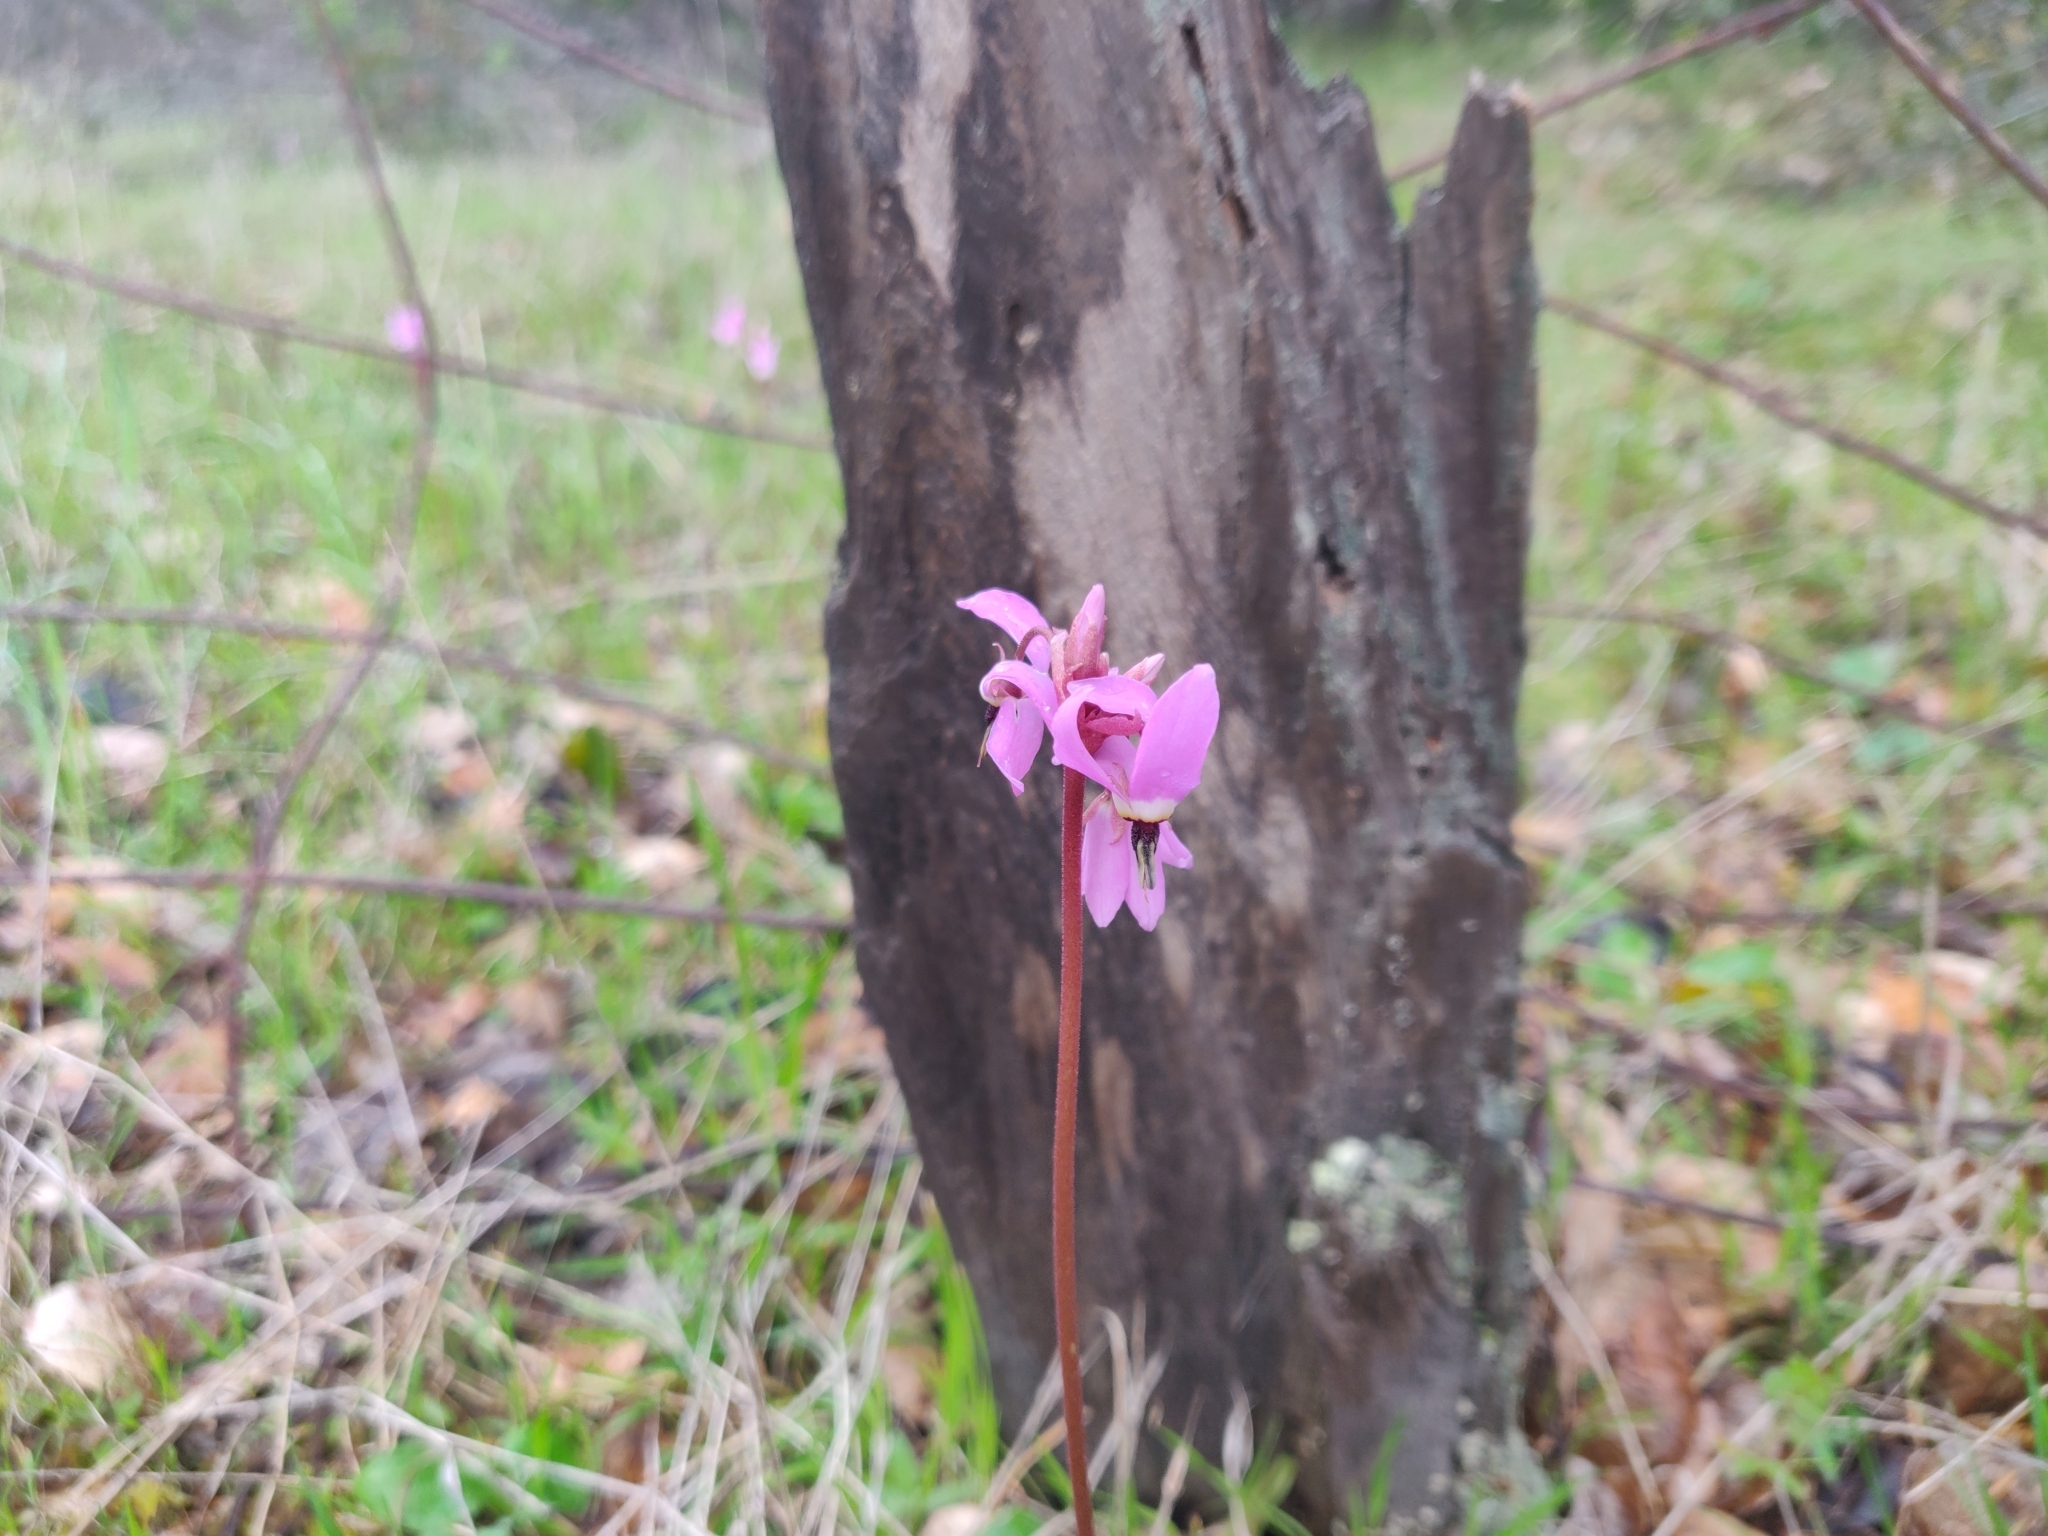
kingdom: Plantae
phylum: Tracheophyta
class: Magnoliopsida
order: Ericales
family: Primulaceae
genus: Dodecatheon
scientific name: Dodecatheon hendersonii
